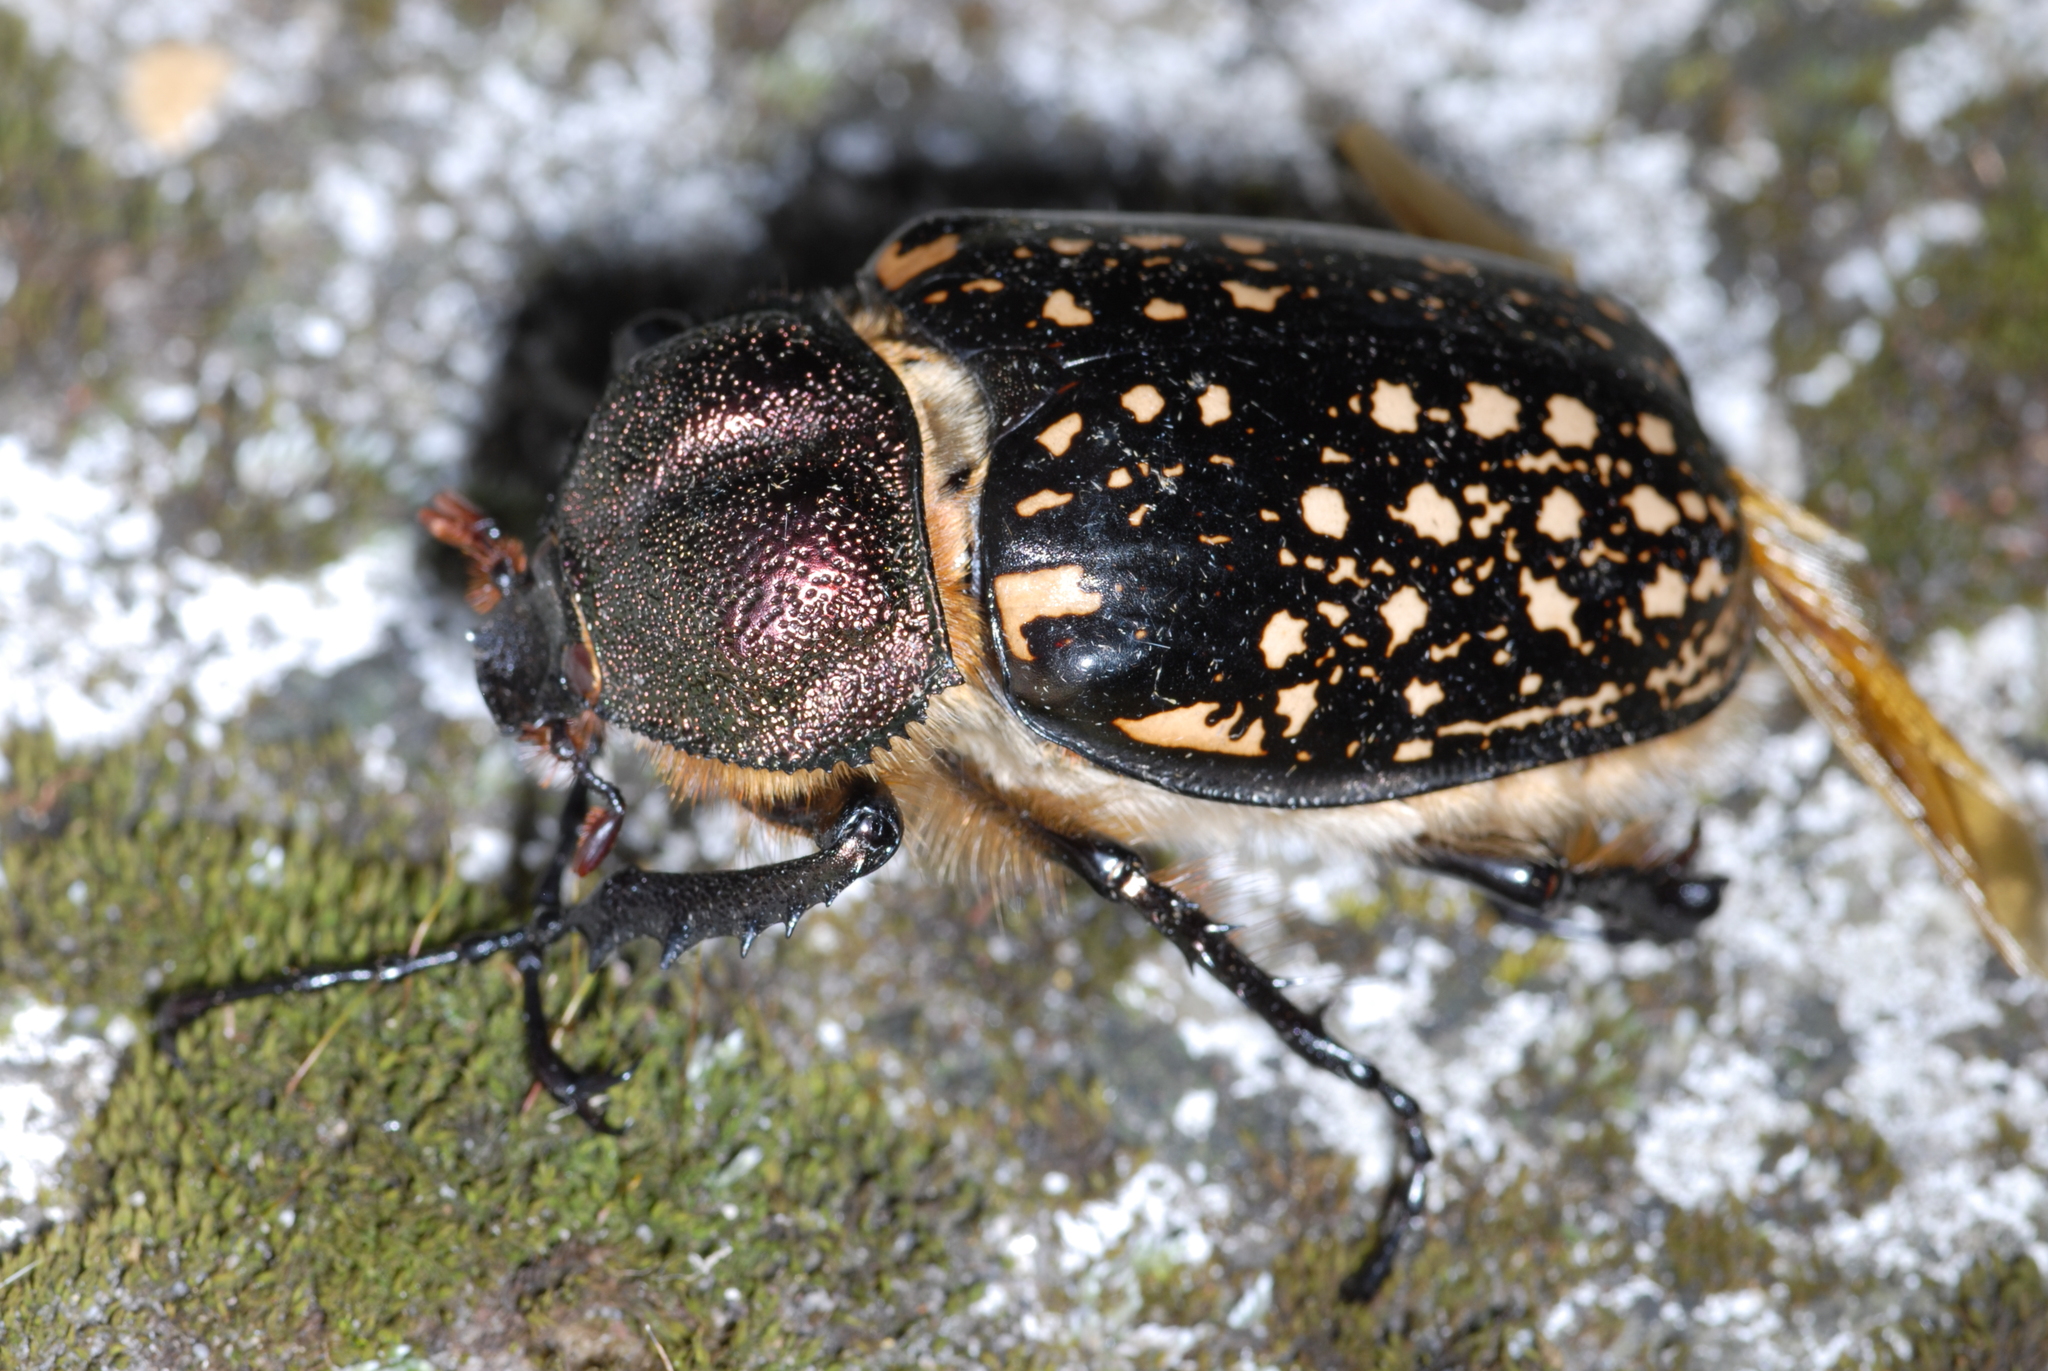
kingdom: Animalia
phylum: Arthropoda
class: Insecta
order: Coleoptera
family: Scarabaeidae
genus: Cheirotonus
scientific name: Cheirotonus formosanus
